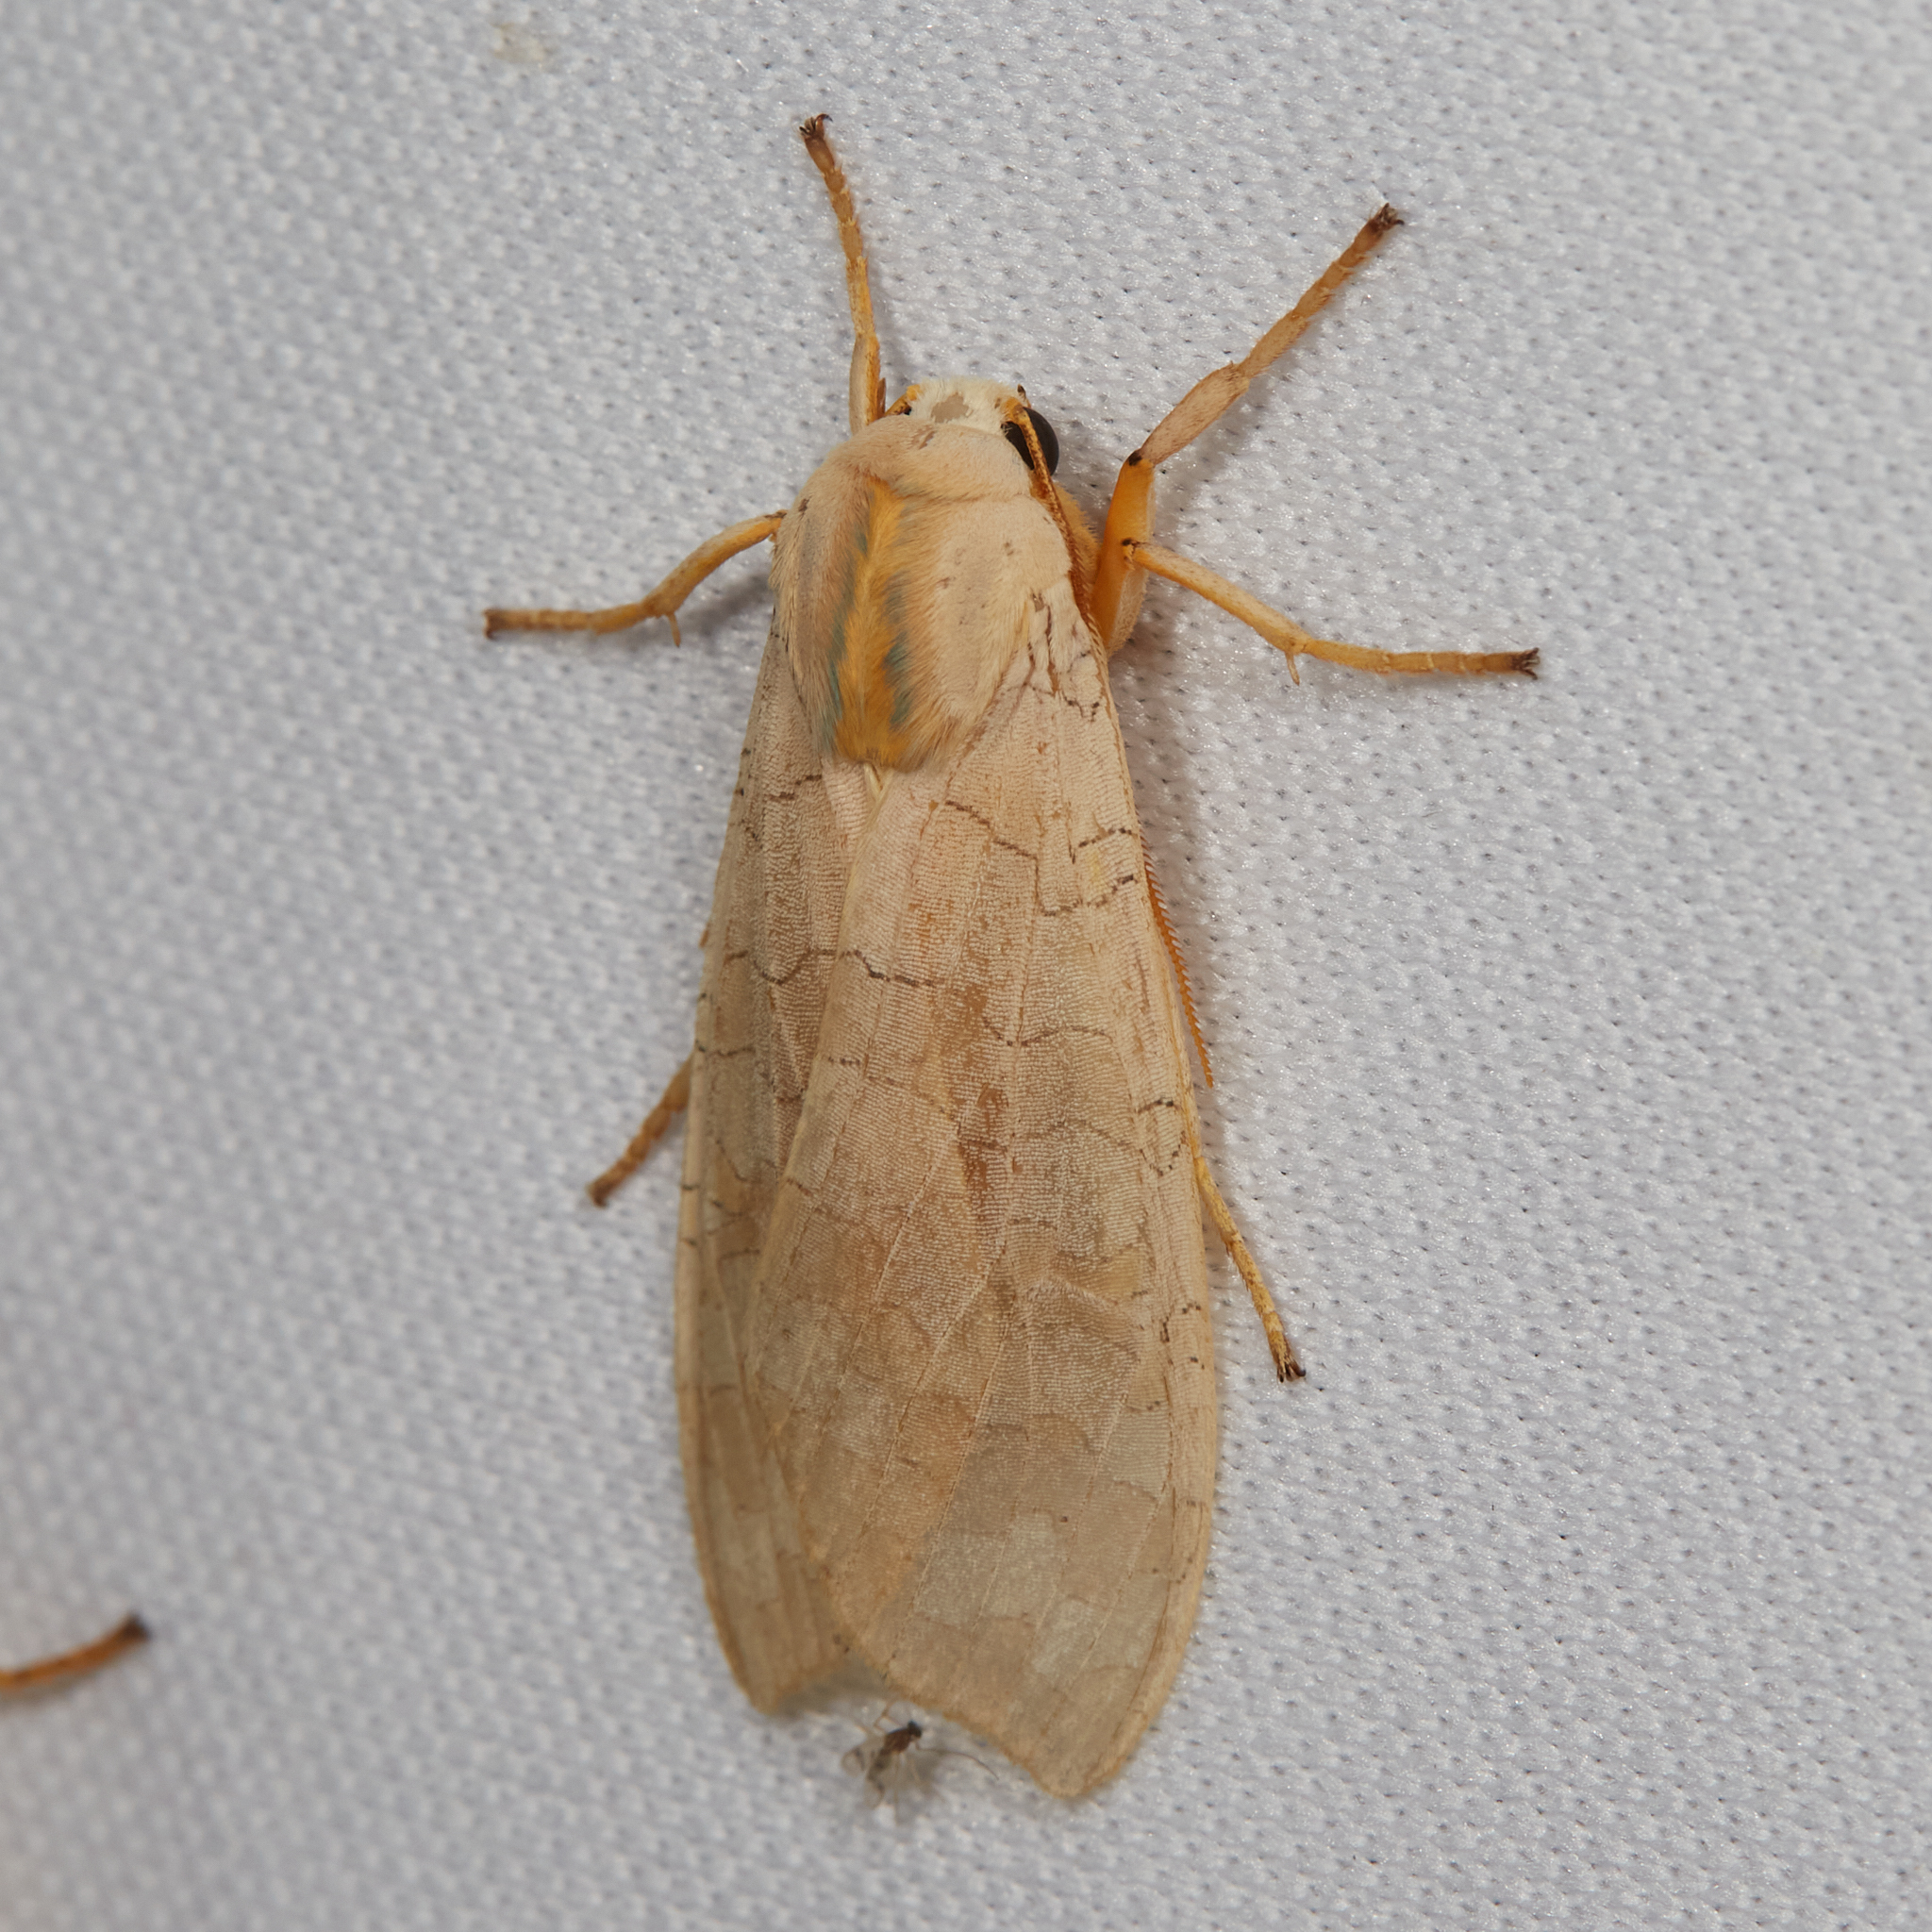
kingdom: Animalia
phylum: Arthropoda
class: Insecta
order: Lepidoptera
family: Erebidae
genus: Halysidota
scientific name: Halysidota
